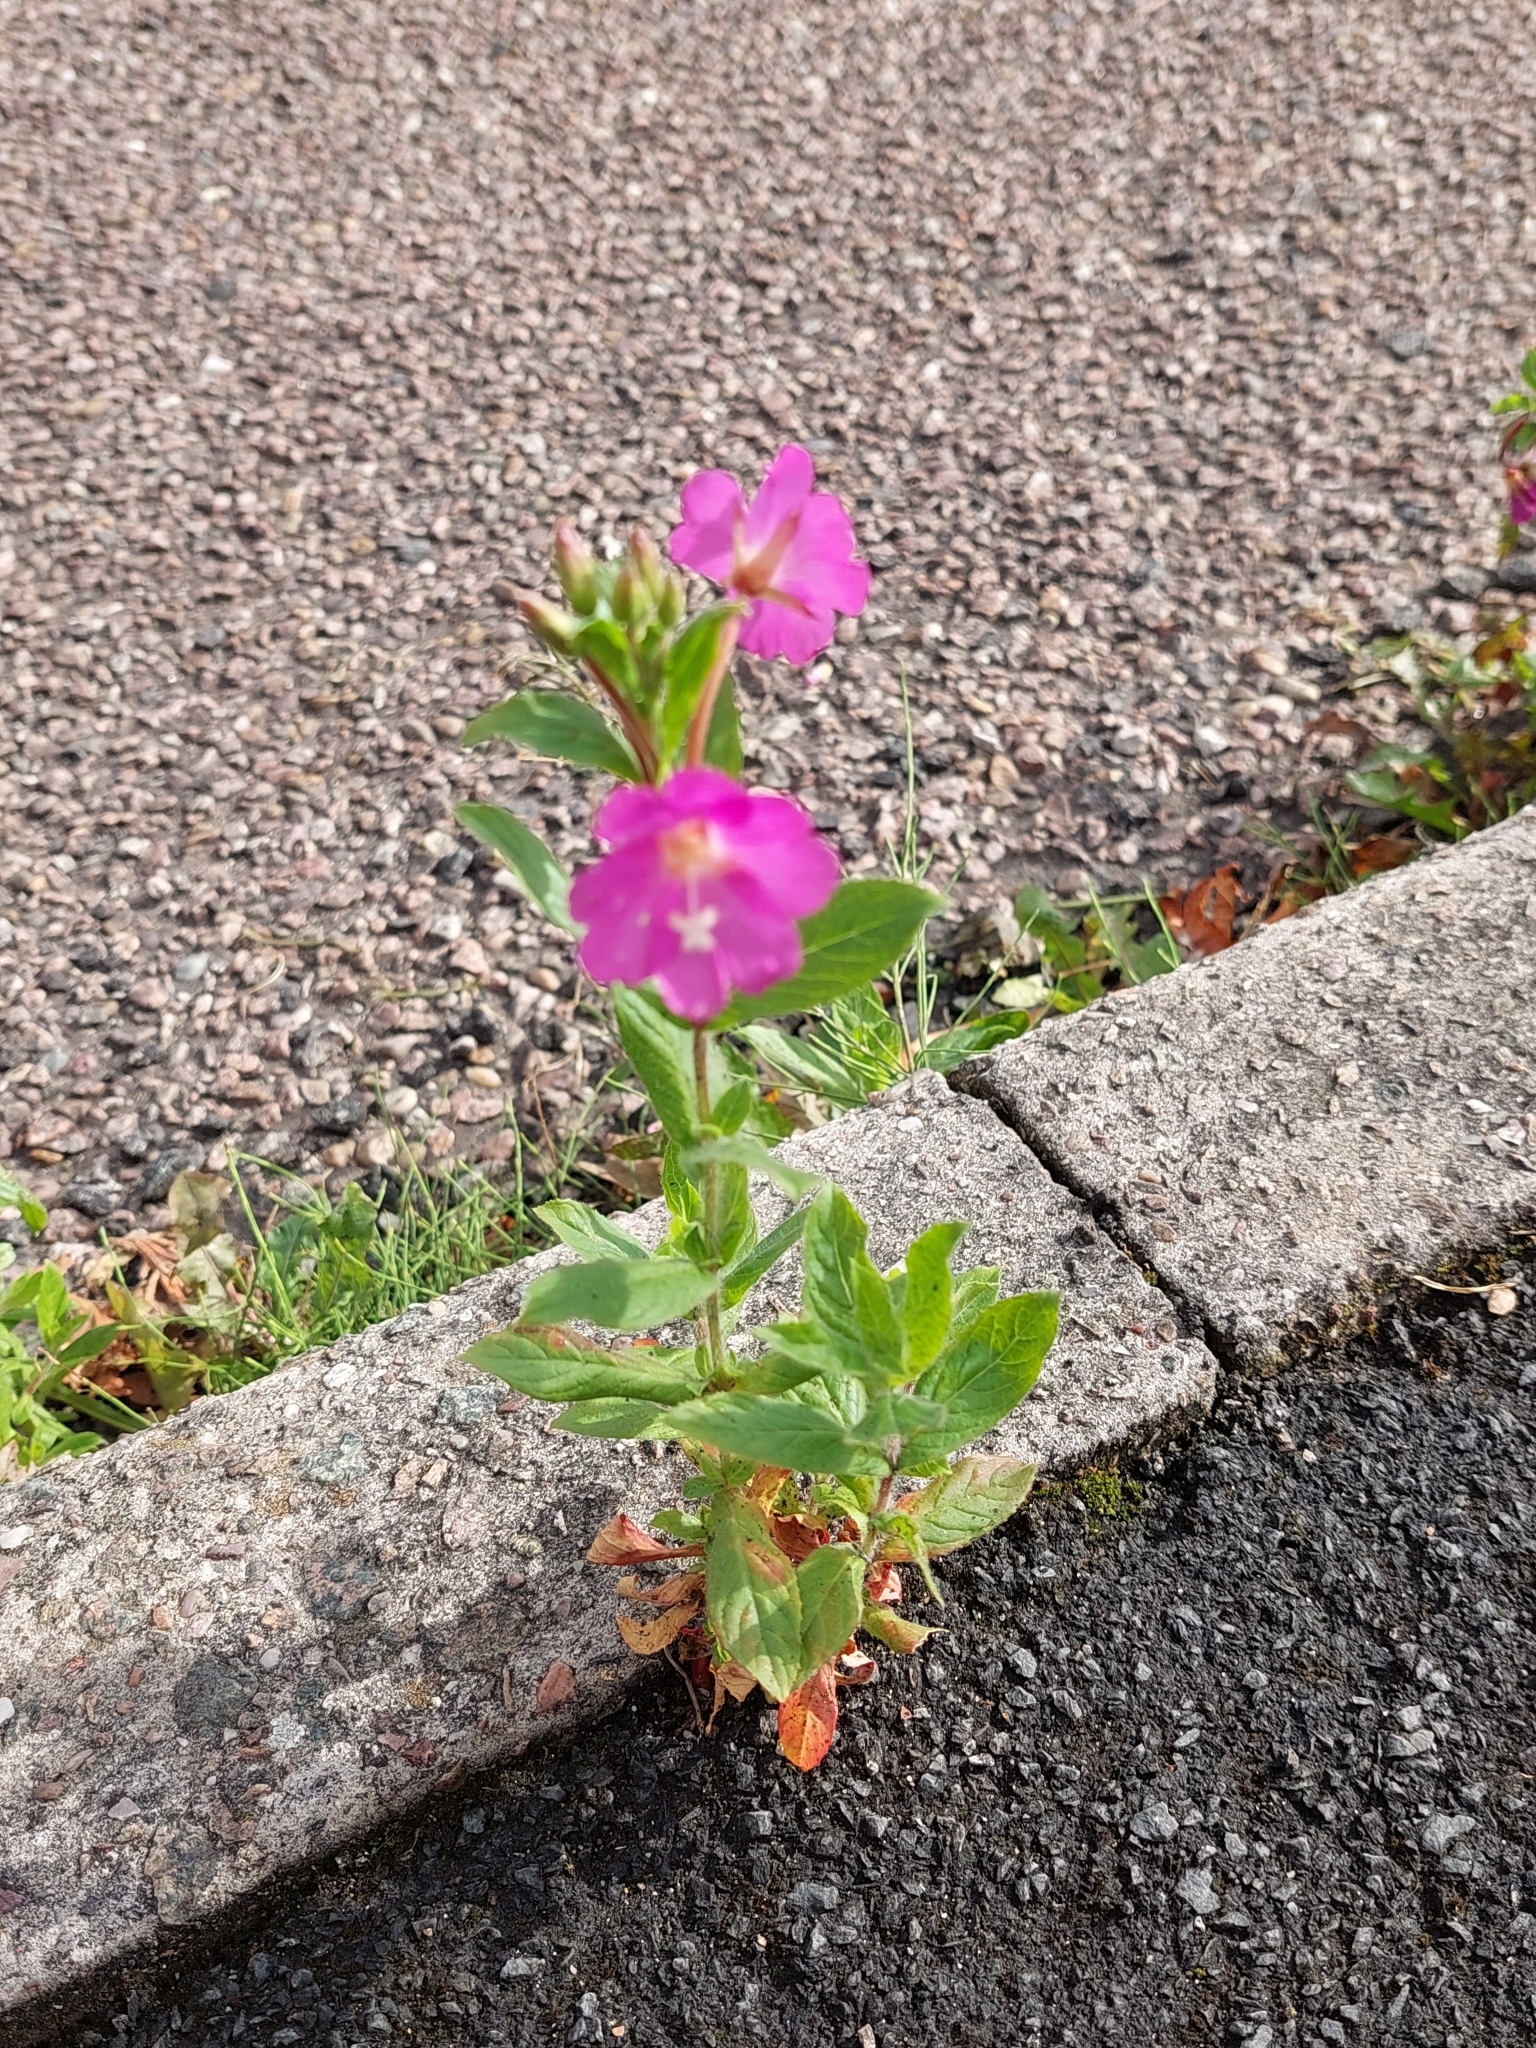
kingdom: Plantae
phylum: Tracheophyta
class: Magnoliopsida
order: Myrtales
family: Onagraceae
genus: Epilobium
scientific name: Epilobium hirsutum
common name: Great willowherb
